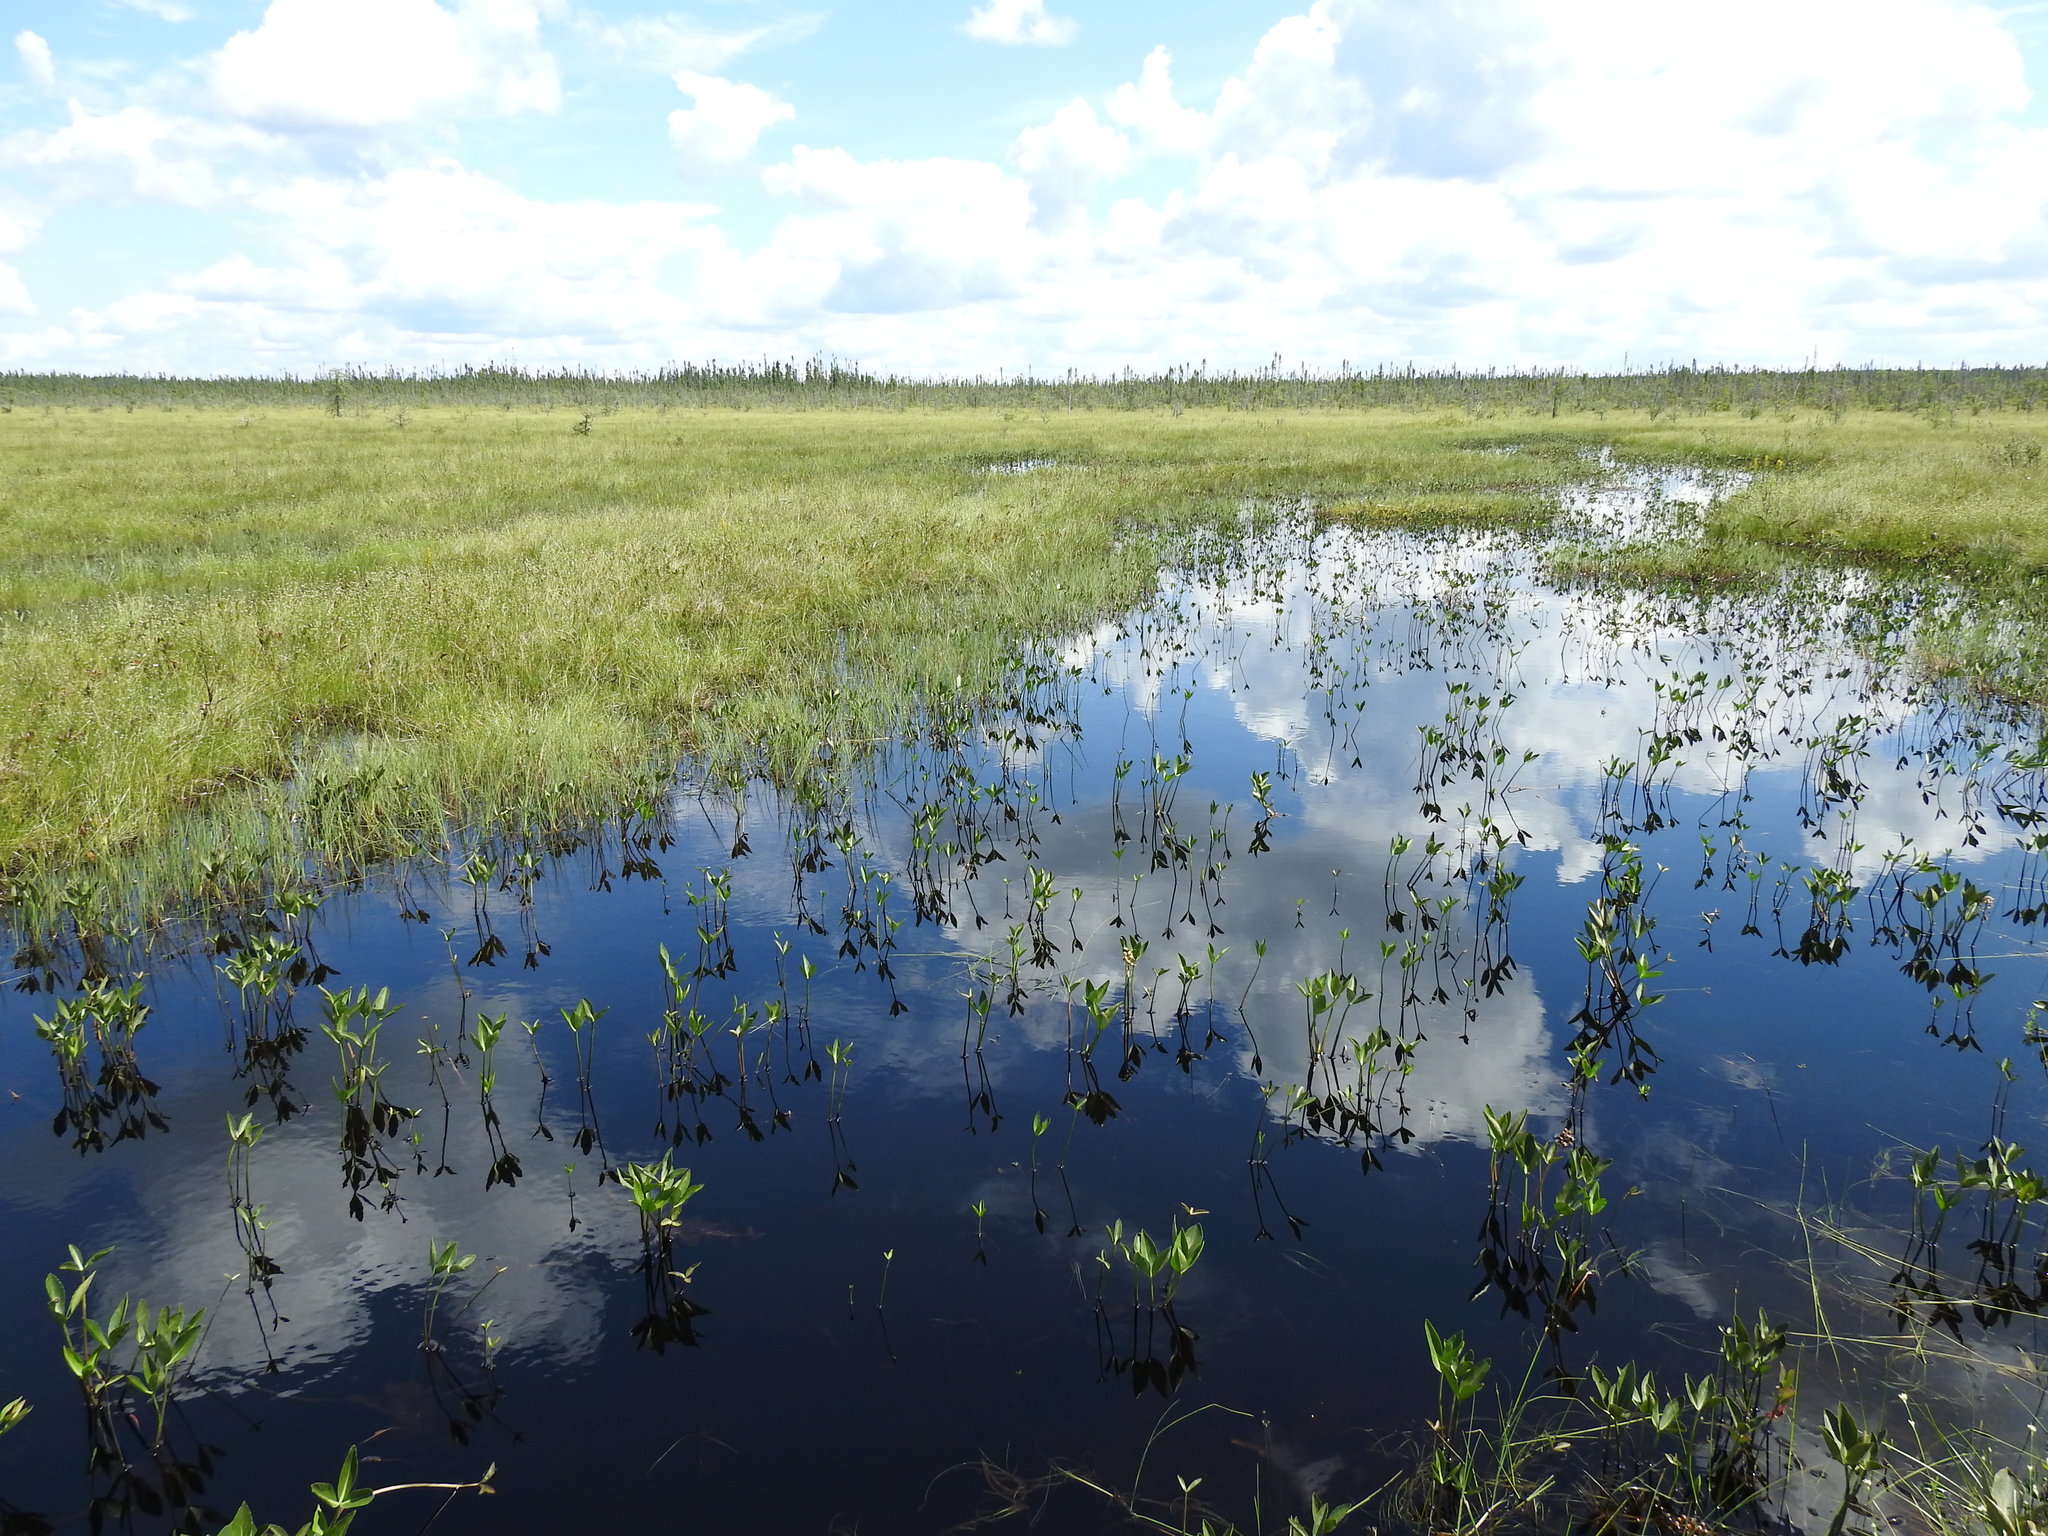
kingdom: Plantae
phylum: Tracheophyta
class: Magnoliopsida
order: Asterales
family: Menyanthaceae
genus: Menyanthes
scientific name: Menyanthes trifoliata
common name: Bogbean
